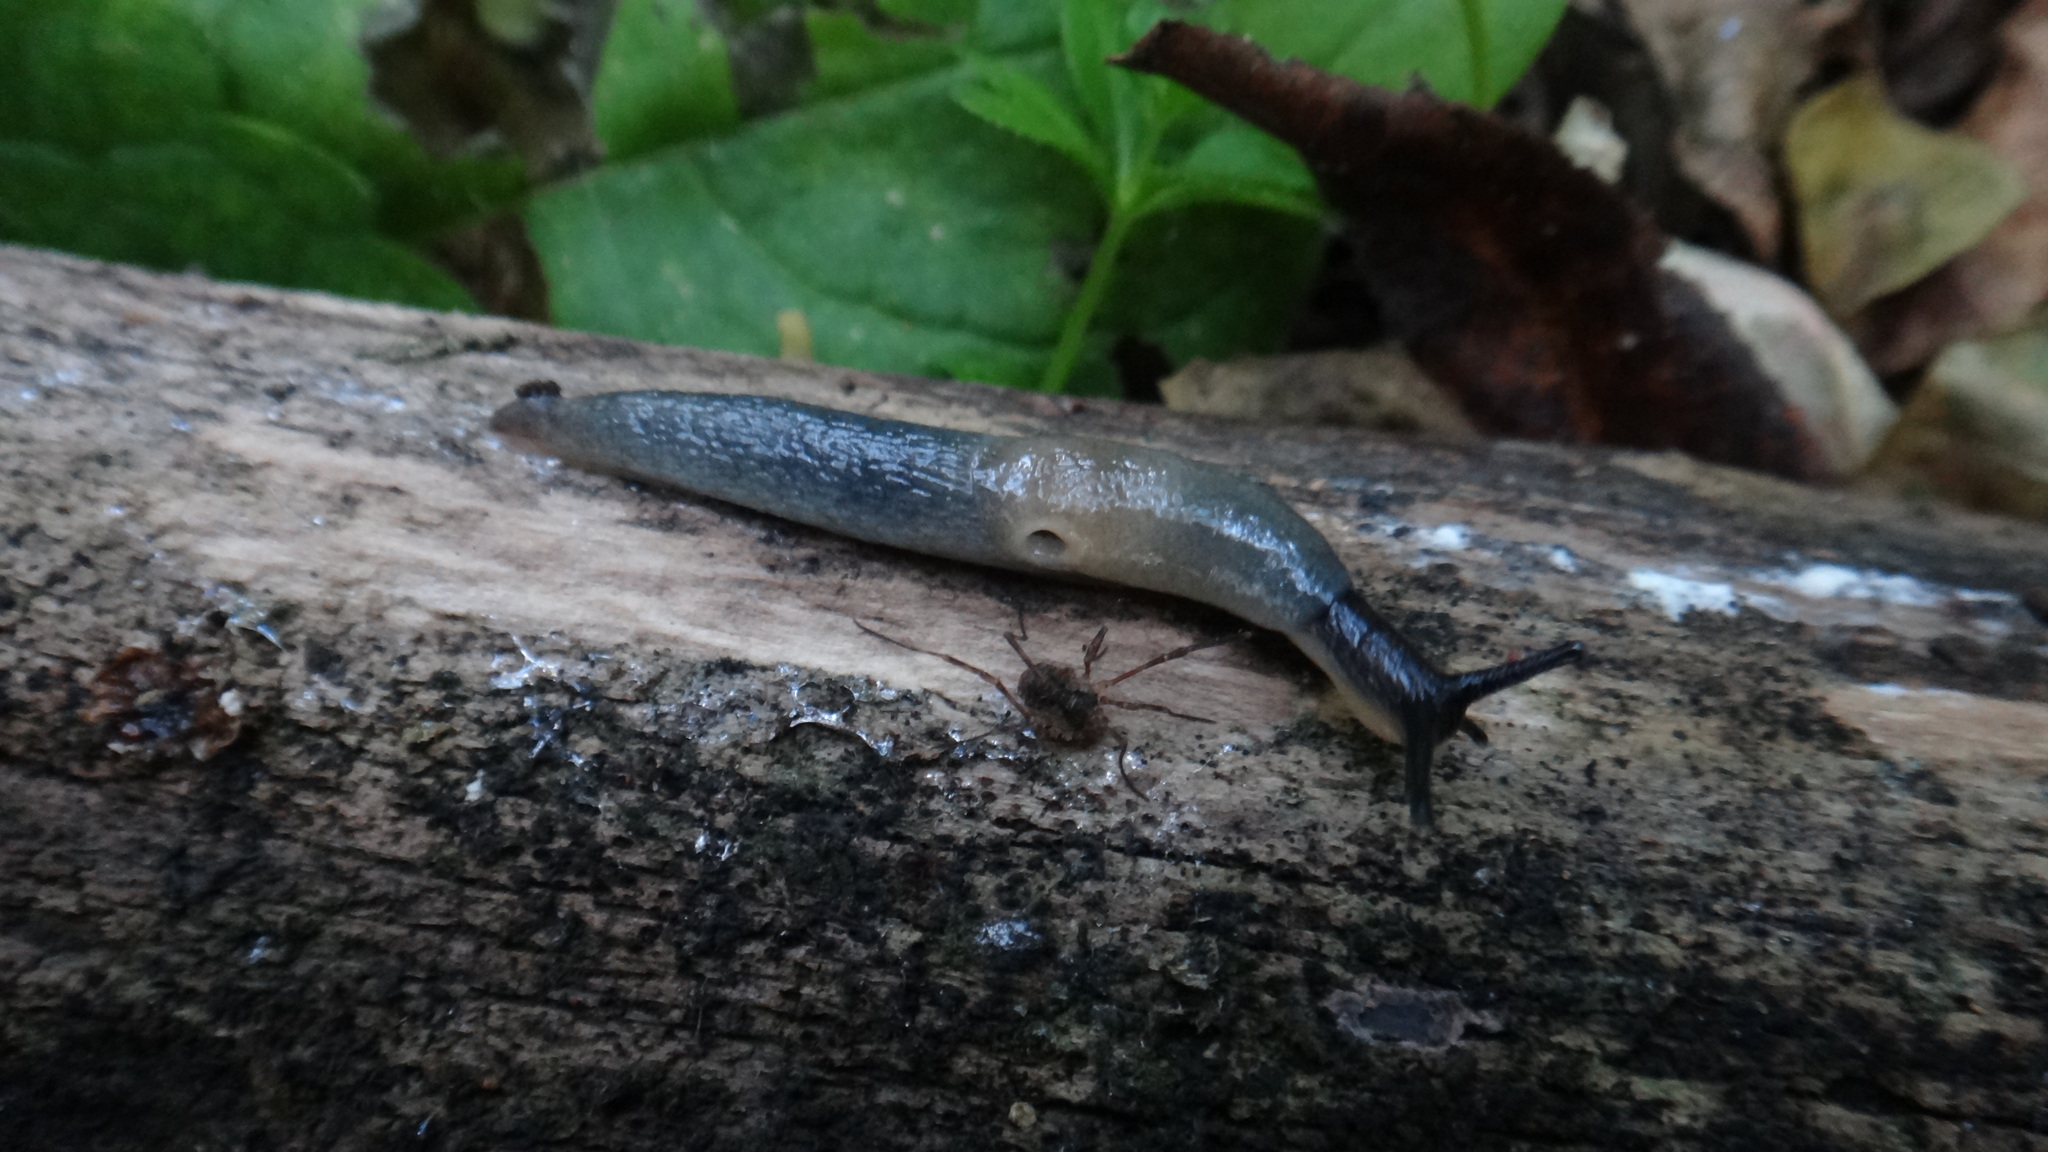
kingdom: Animalia
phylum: Mollusca
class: Gastropoda
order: Stylommatophora
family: Agriolimacidae
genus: Krynickillus
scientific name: Krynickillus melanocephalus
